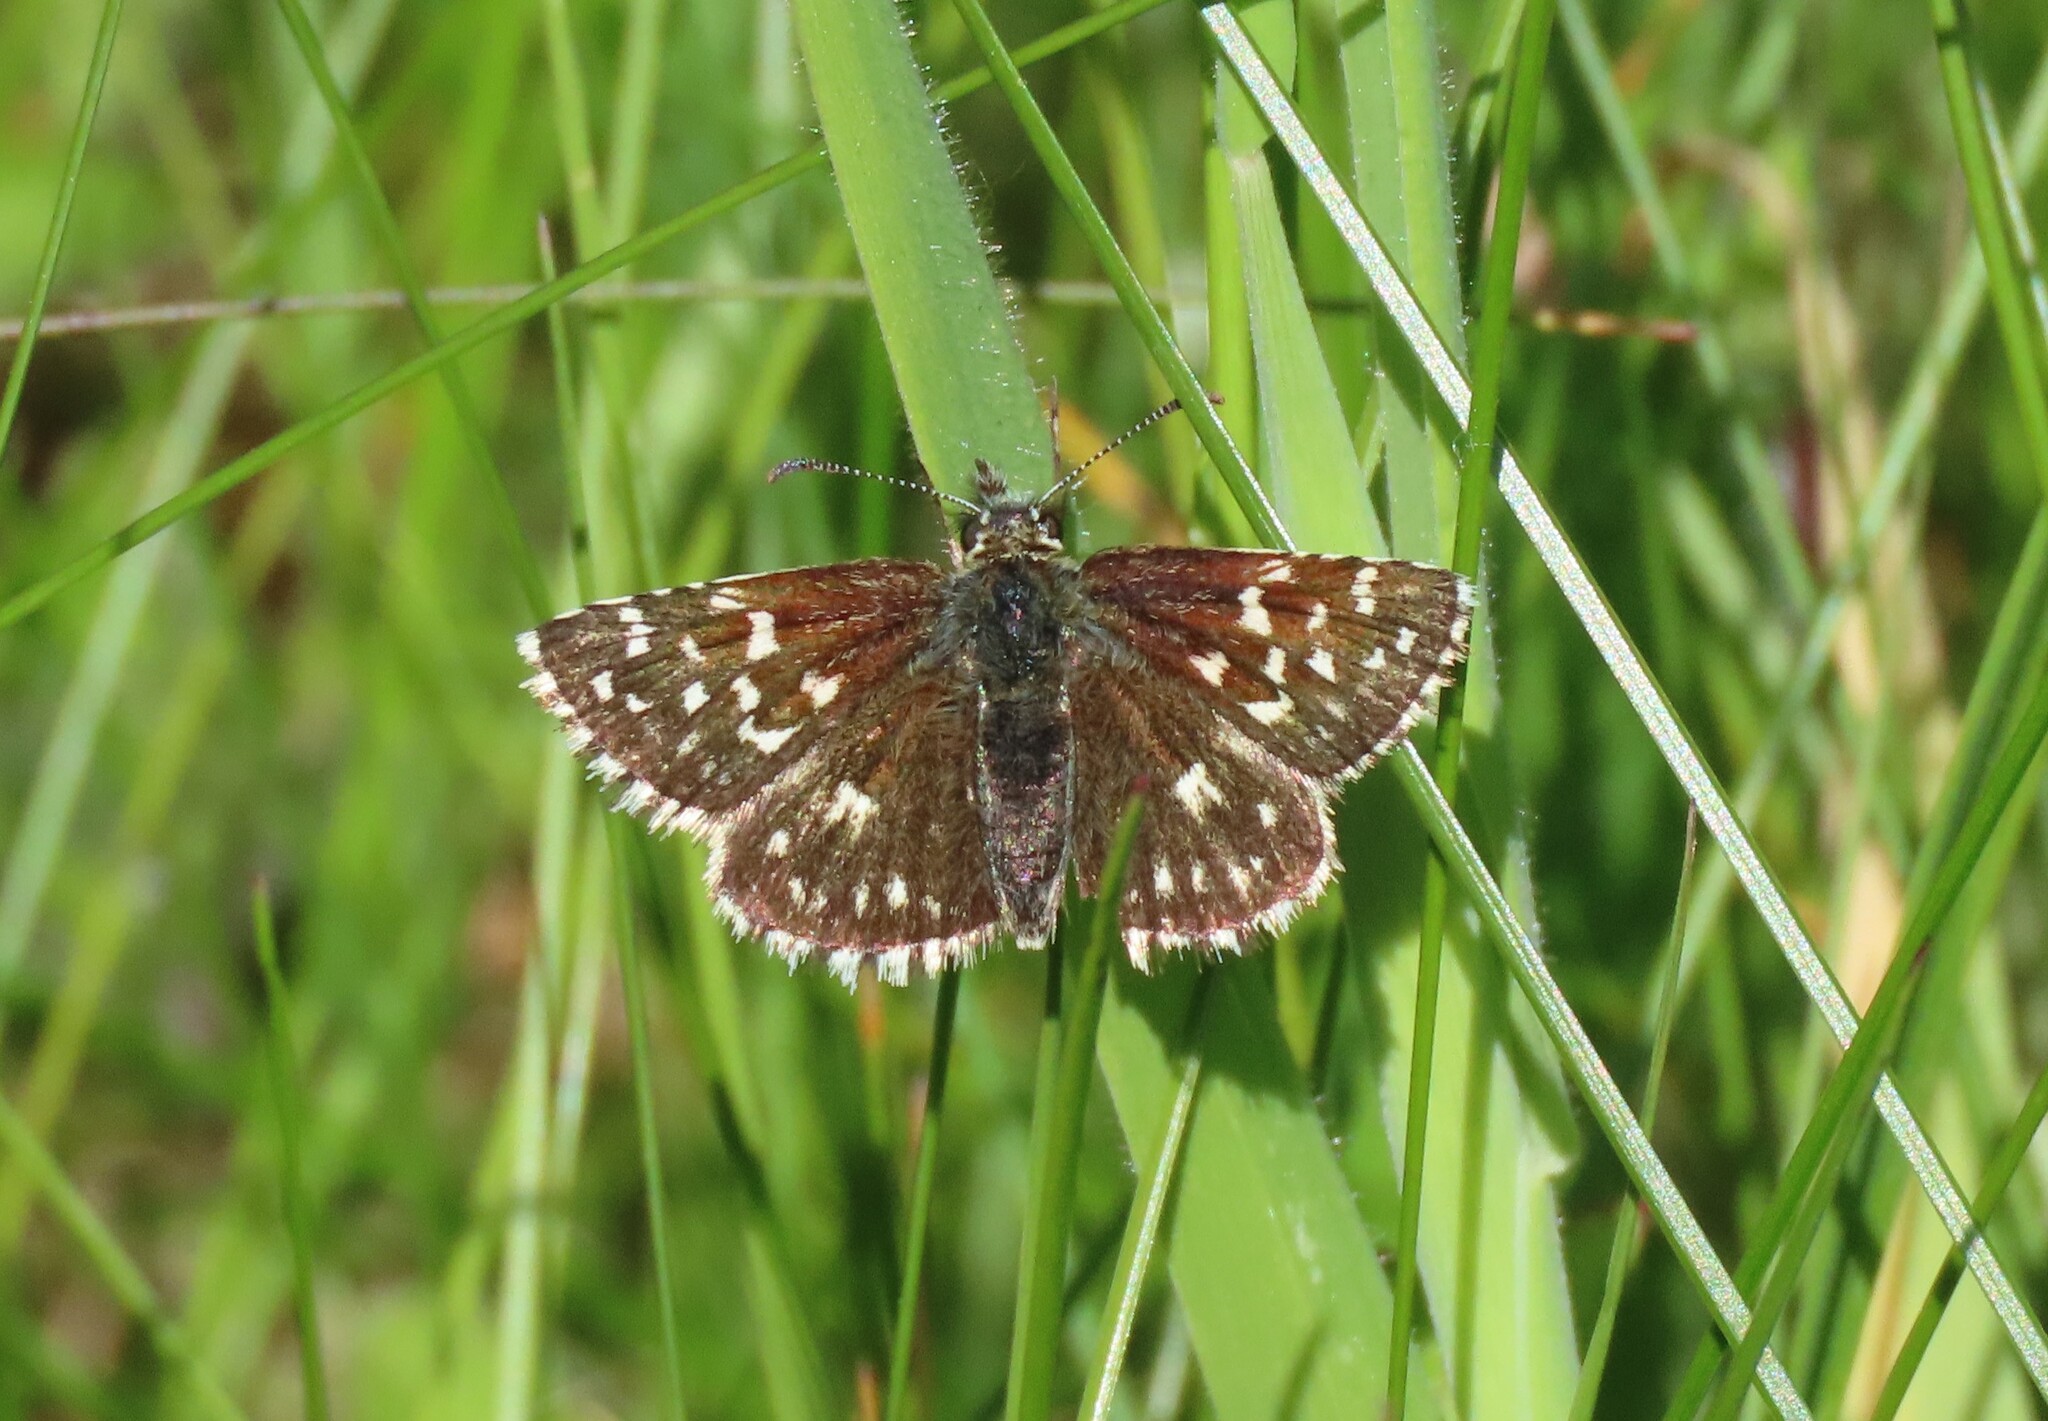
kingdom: Animalia
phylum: Arthropoda
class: Insecta
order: Lepidoptera
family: Hesperiidae
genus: Pyrgus
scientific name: Pyrgus malvae
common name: Grizzled skipper
